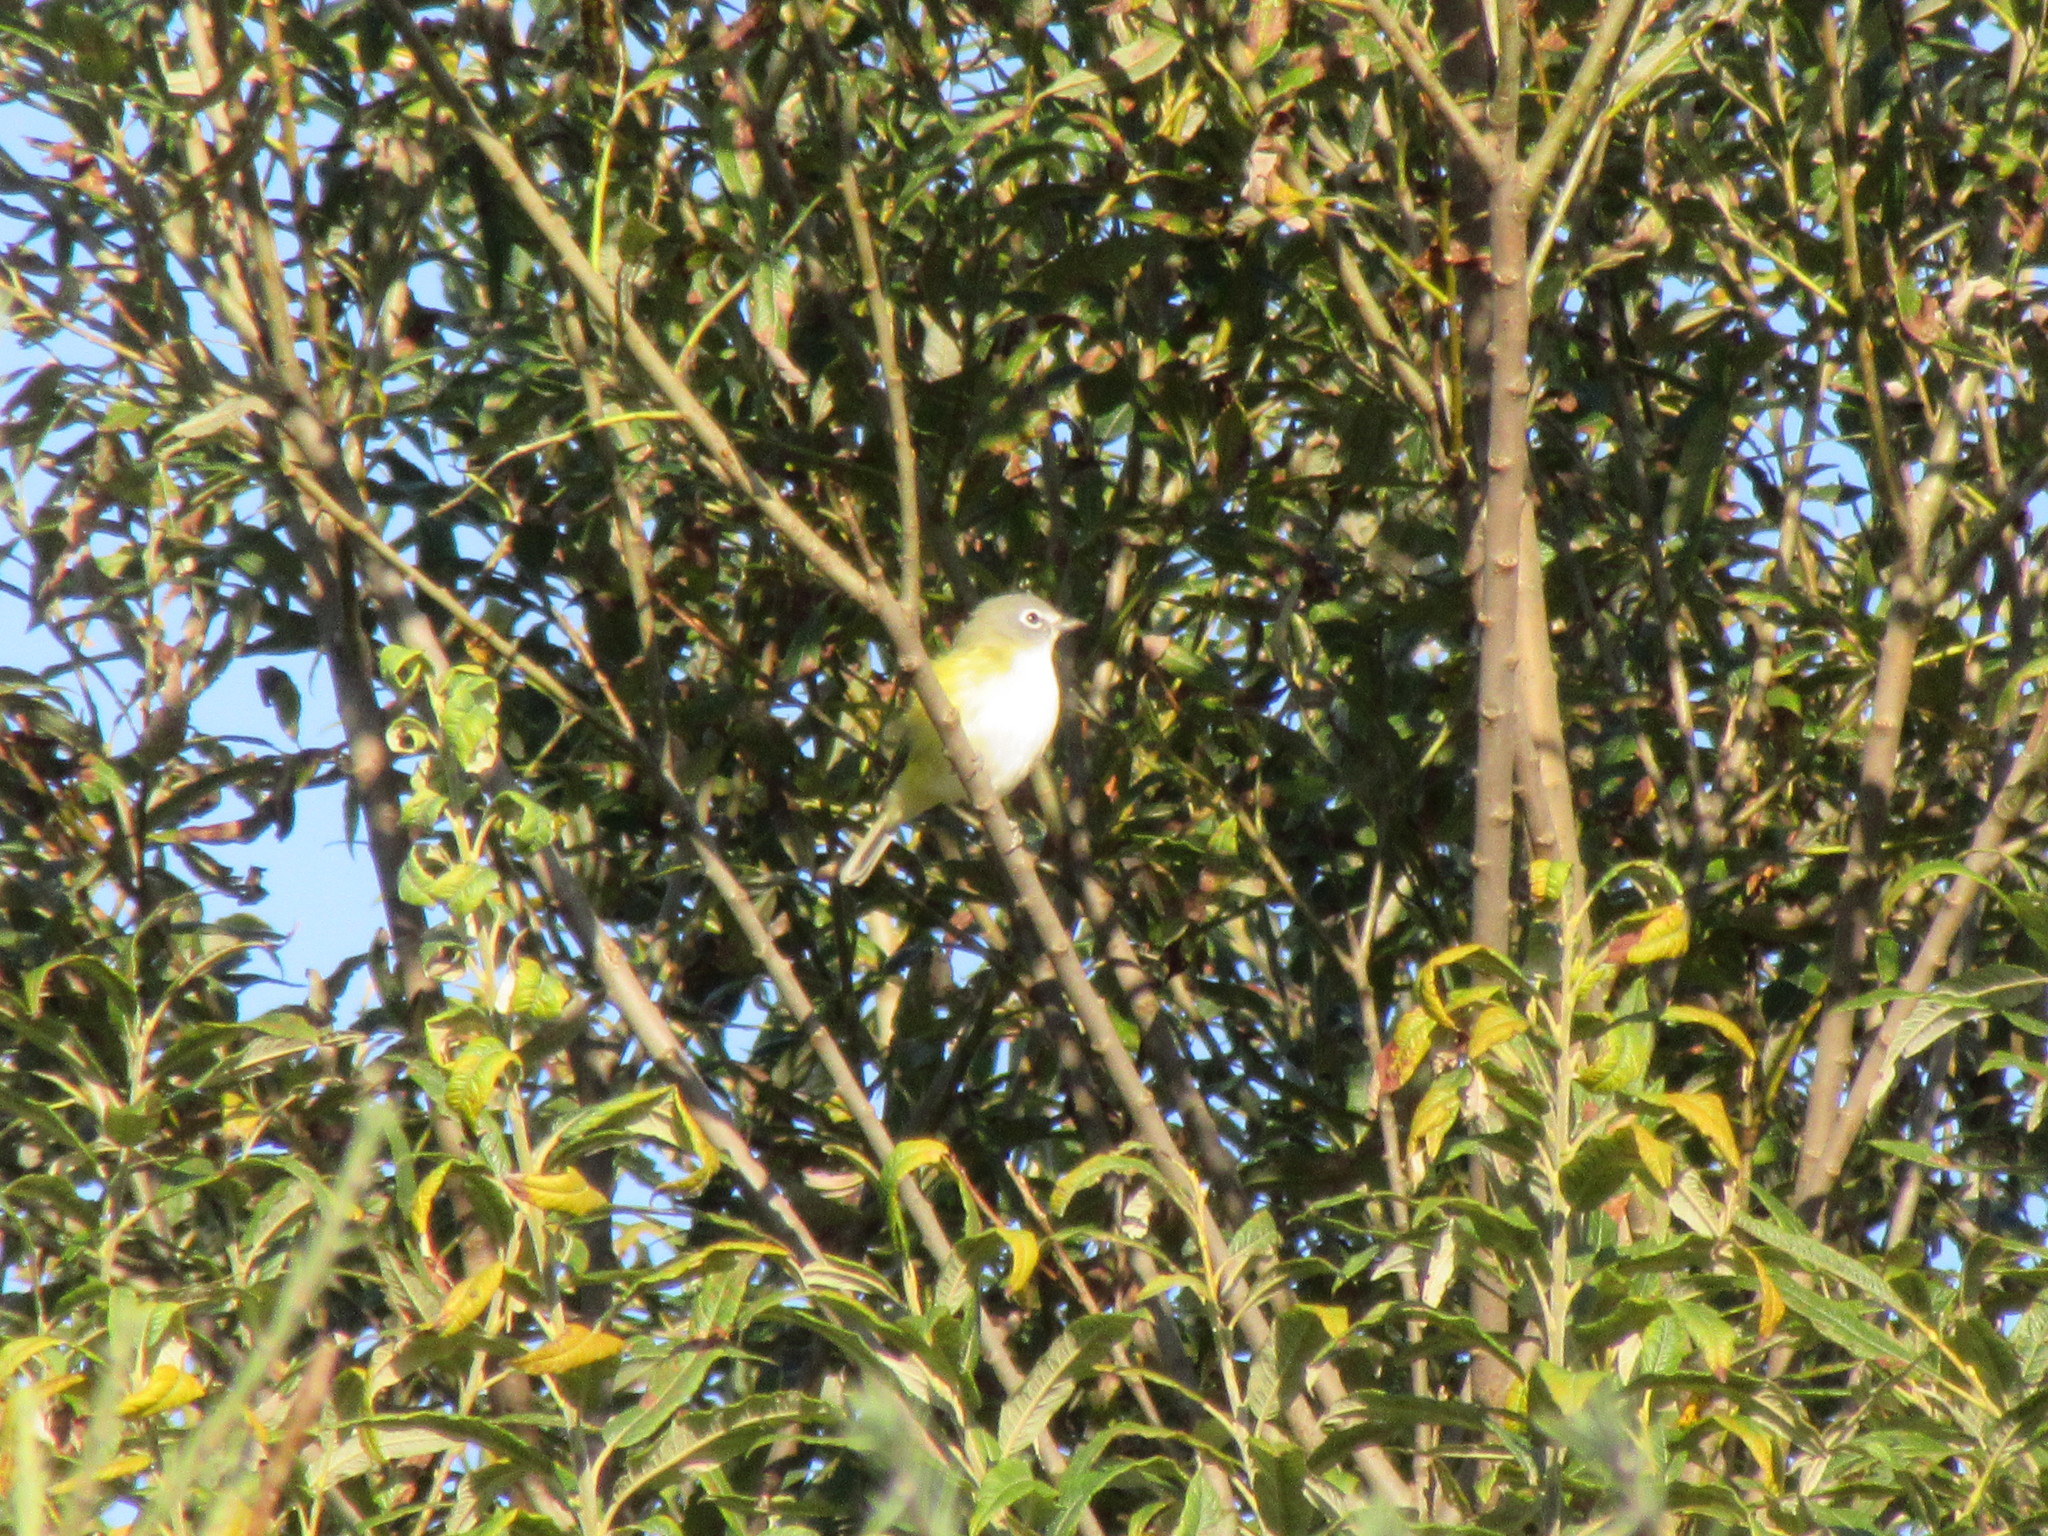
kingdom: Animalia
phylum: Chordata
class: Aves
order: Passeriformes
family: Vireonidae
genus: Vireo
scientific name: Vireo solitarius
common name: Blue-headed vireo
